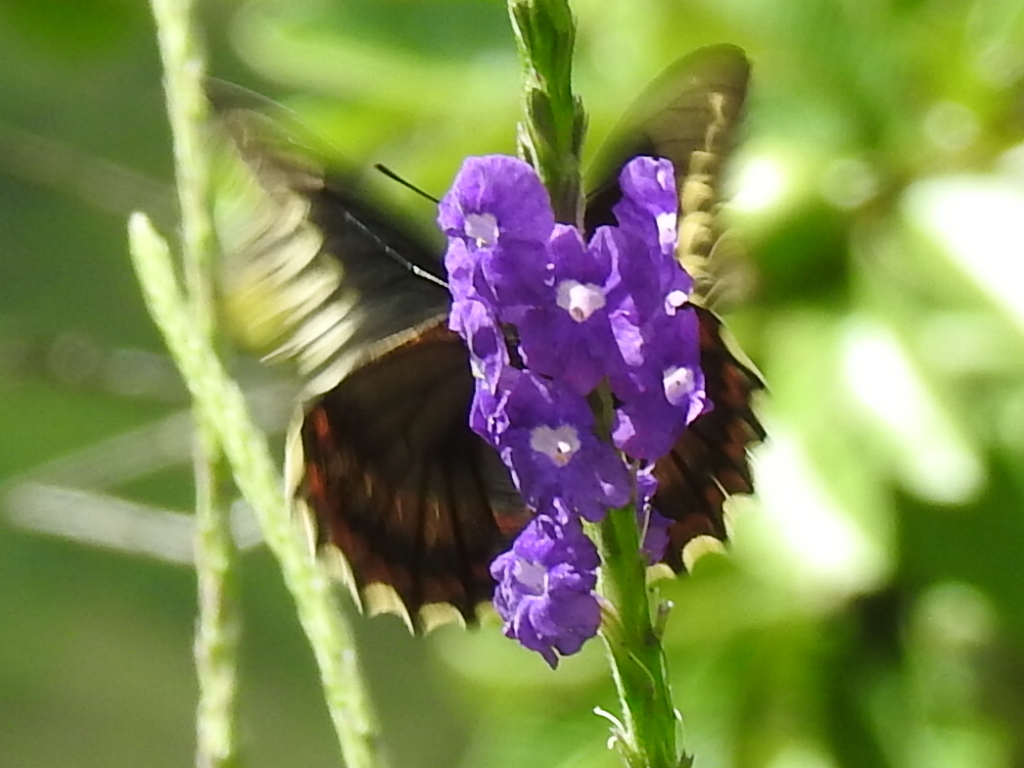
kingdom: Animalia
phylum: Arthropoda
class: Insecta
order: Lepidoptera
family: Papilionidae
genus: Battus
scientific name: Battus polydamas
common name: Polydamas swallowtail
